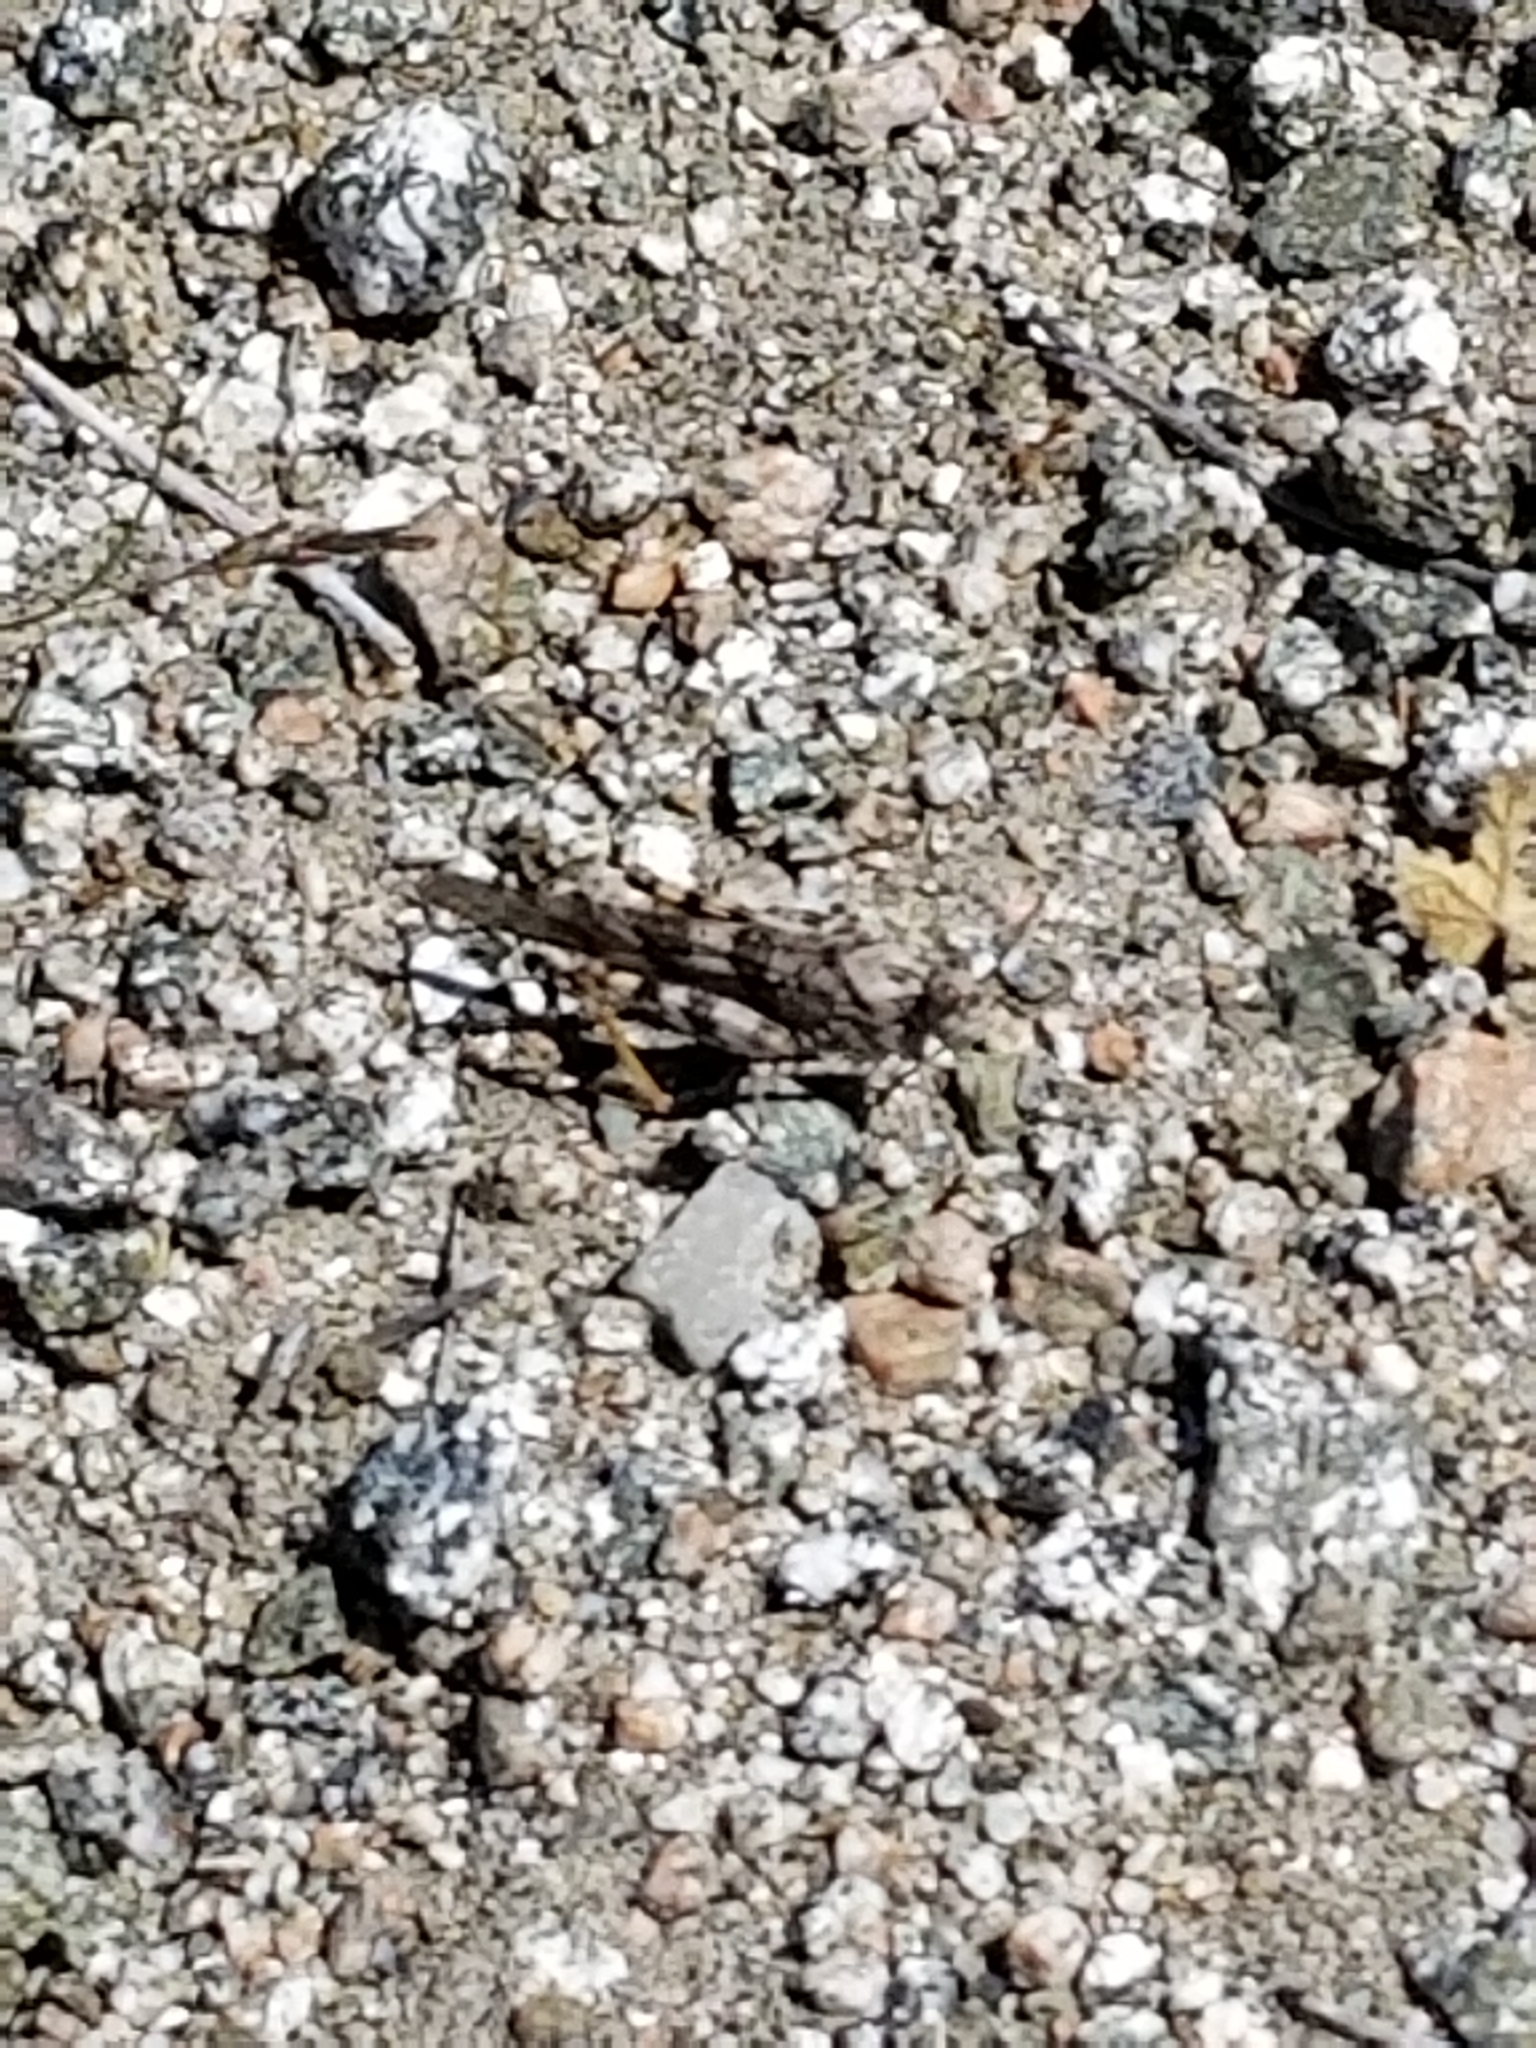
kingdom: Animalia
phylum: Arthropoda
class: Insecta
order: Orthoptera
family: Acrididae
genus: Trimerotropis
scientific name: Trimerotropis pallidipennis
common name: Pallid-winged grasshopper
